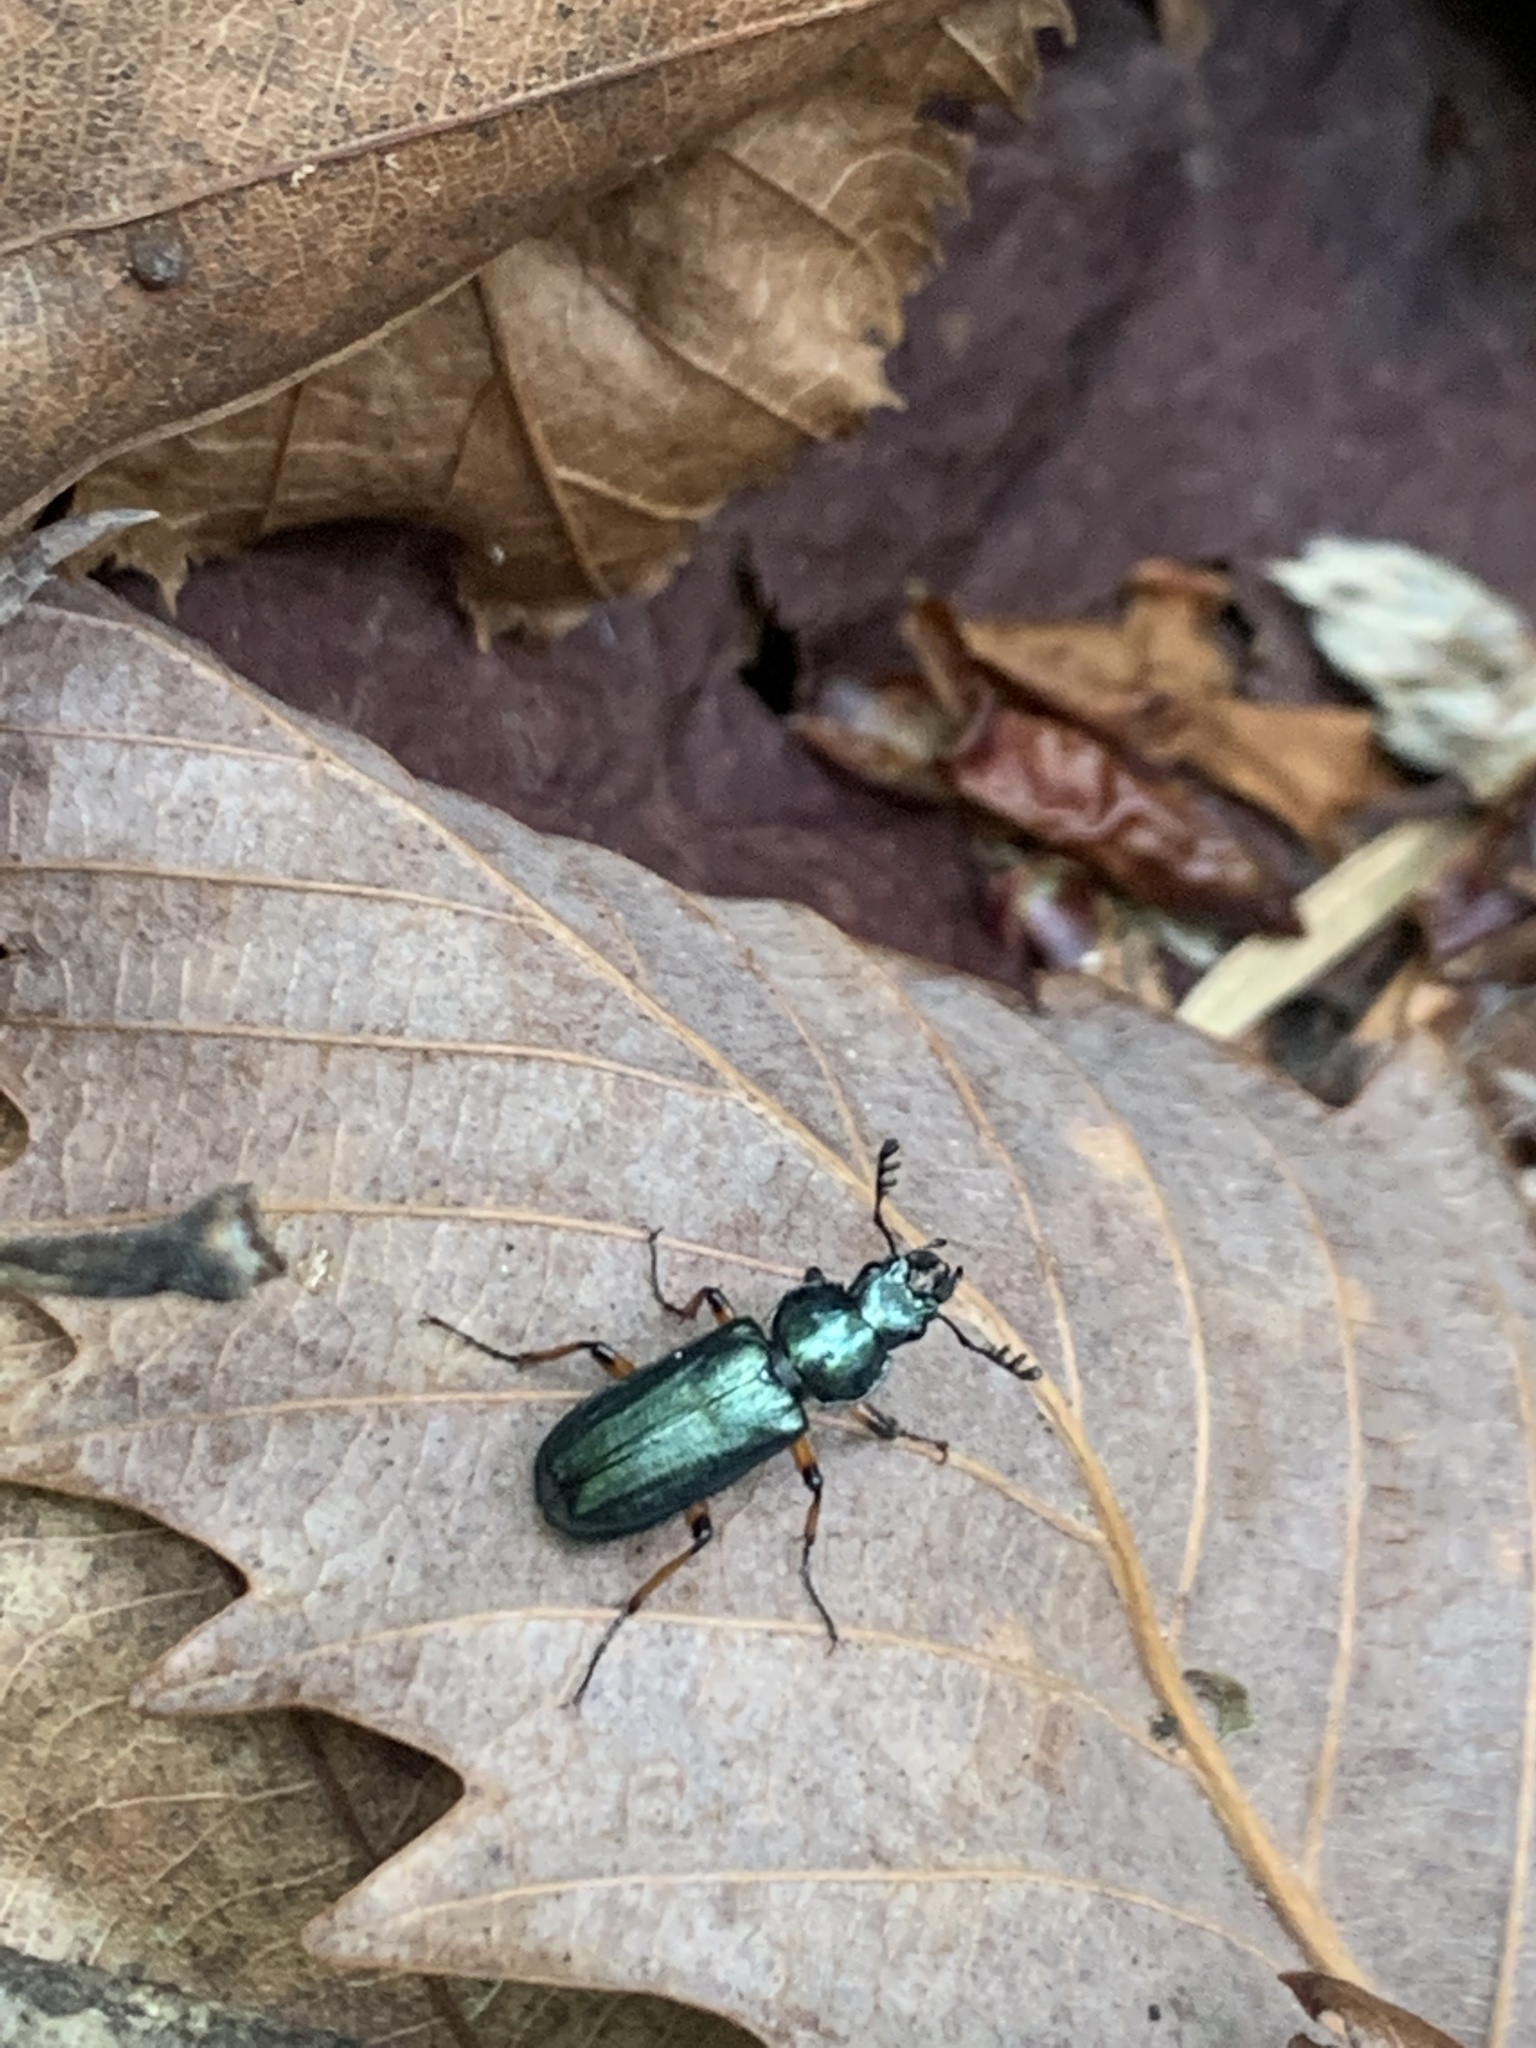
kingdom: Animalia
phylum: Arthropoda
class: Insecta
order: Coleoptera
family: Lucanidae
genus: Platycerus
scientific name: Platycerus takakuwai
